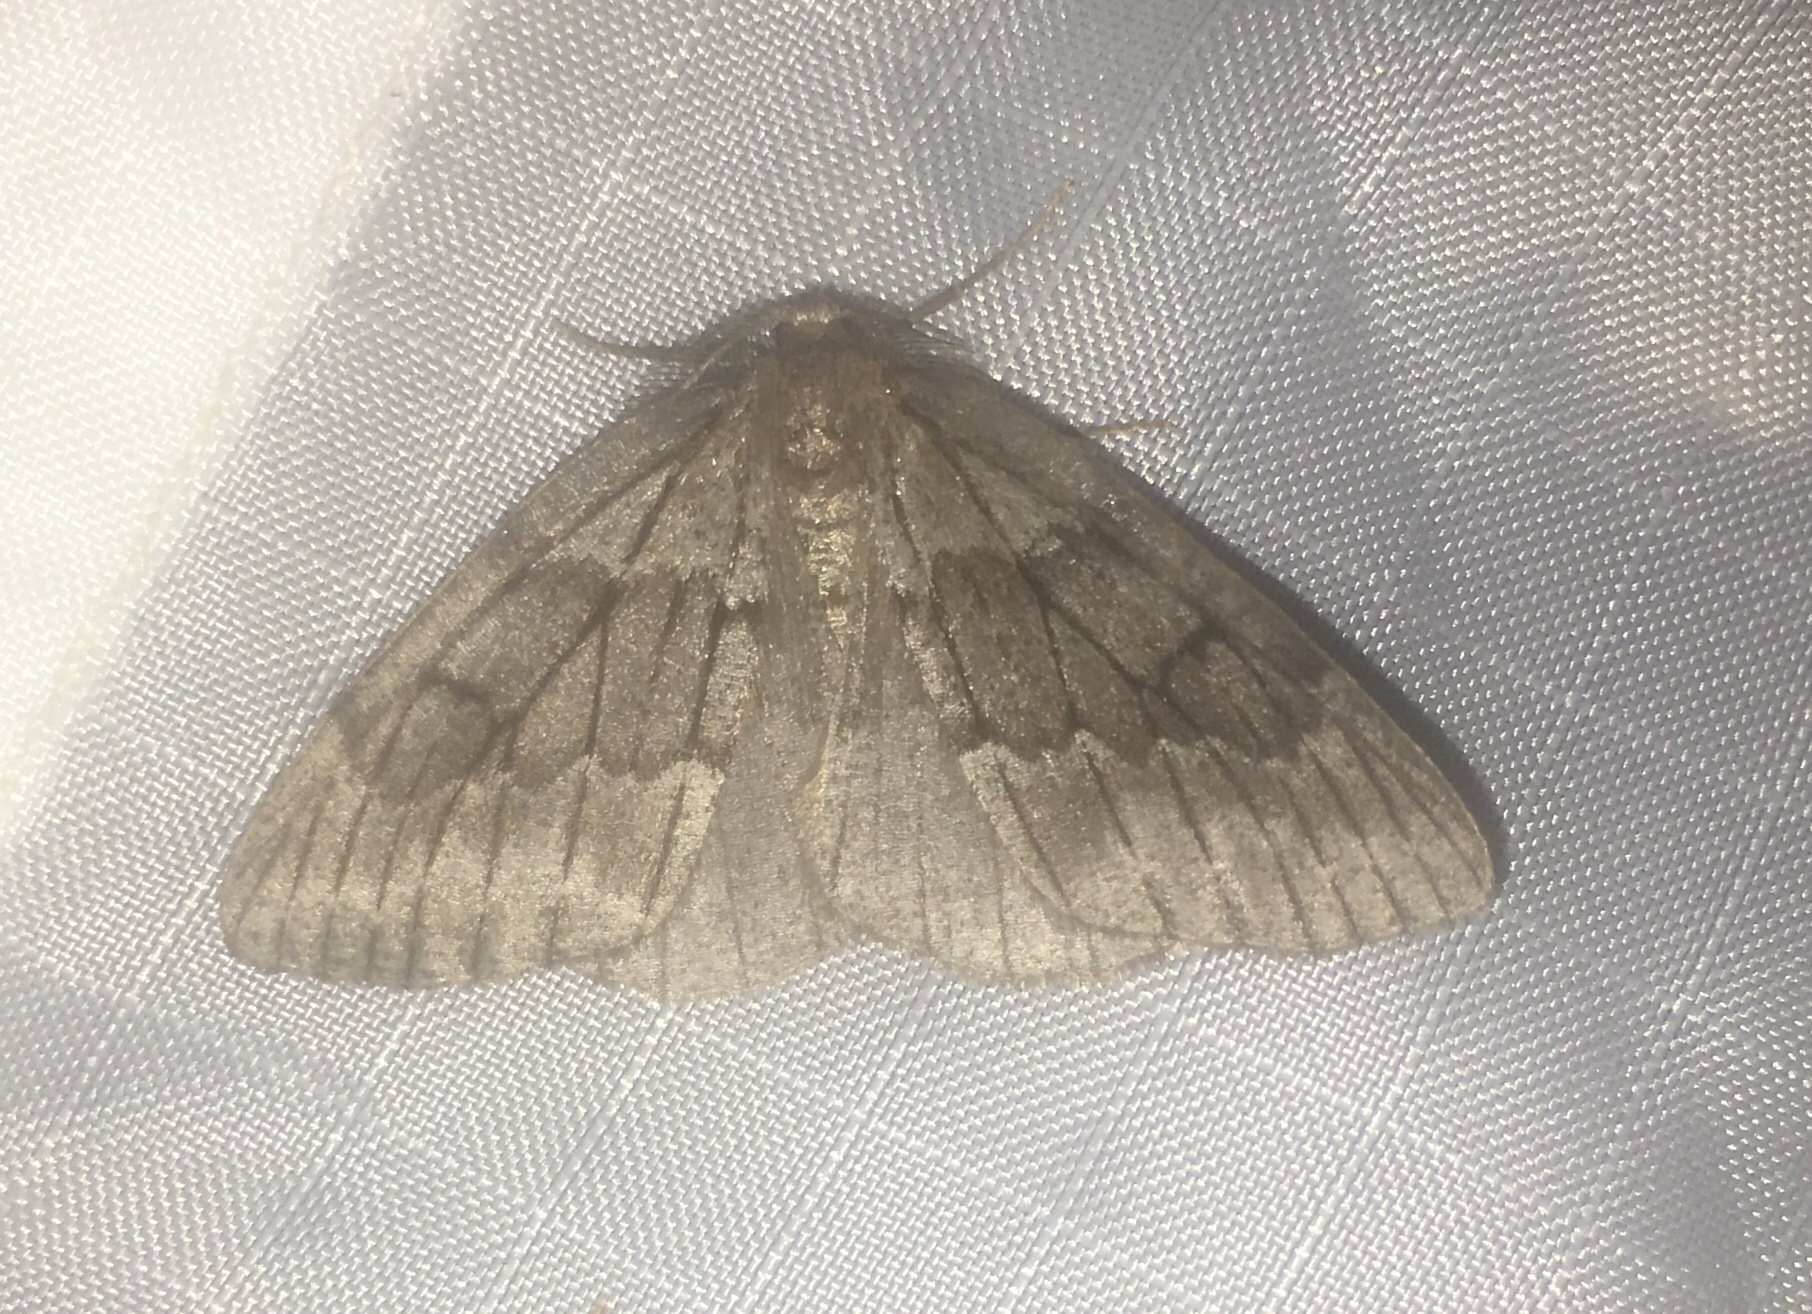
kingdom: Animalia
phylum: Arthropoda
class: Insecta
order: Lepidoptera
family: Geometridae
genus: Nepytia
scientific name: Nepytia umbrosaria
